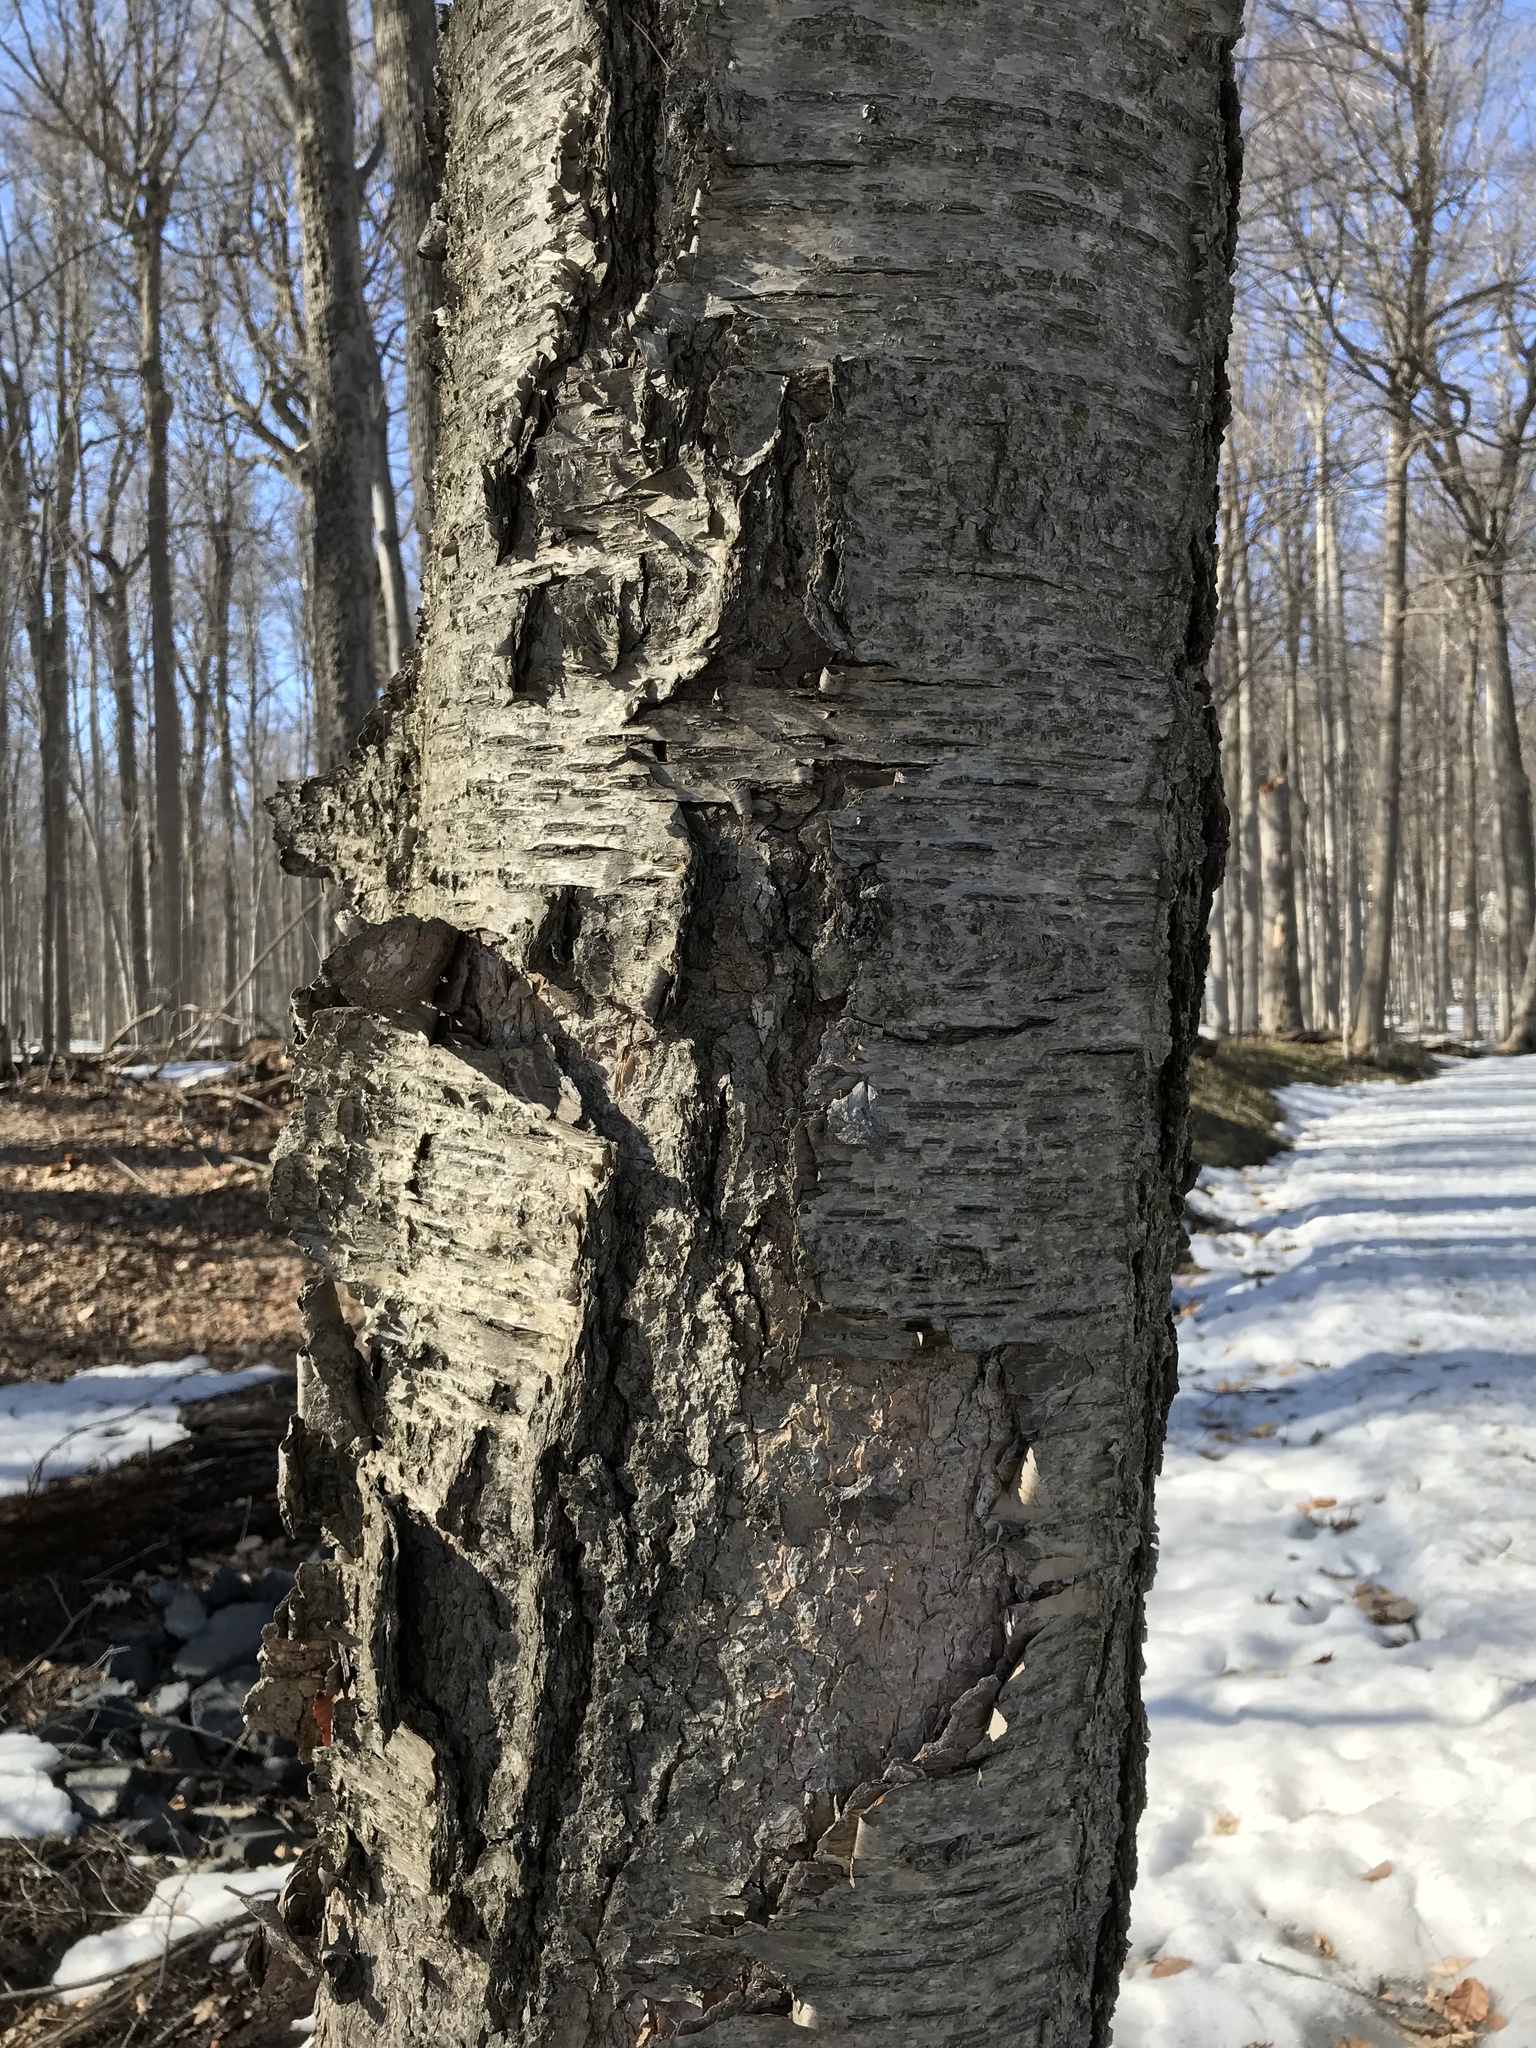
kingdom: Plantae
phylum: Tracheophyta
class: Magnoliopsida
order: Fagales
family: Betulaceae
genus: Betula
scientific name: Betula alleghaniensis
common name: Yellow birch
